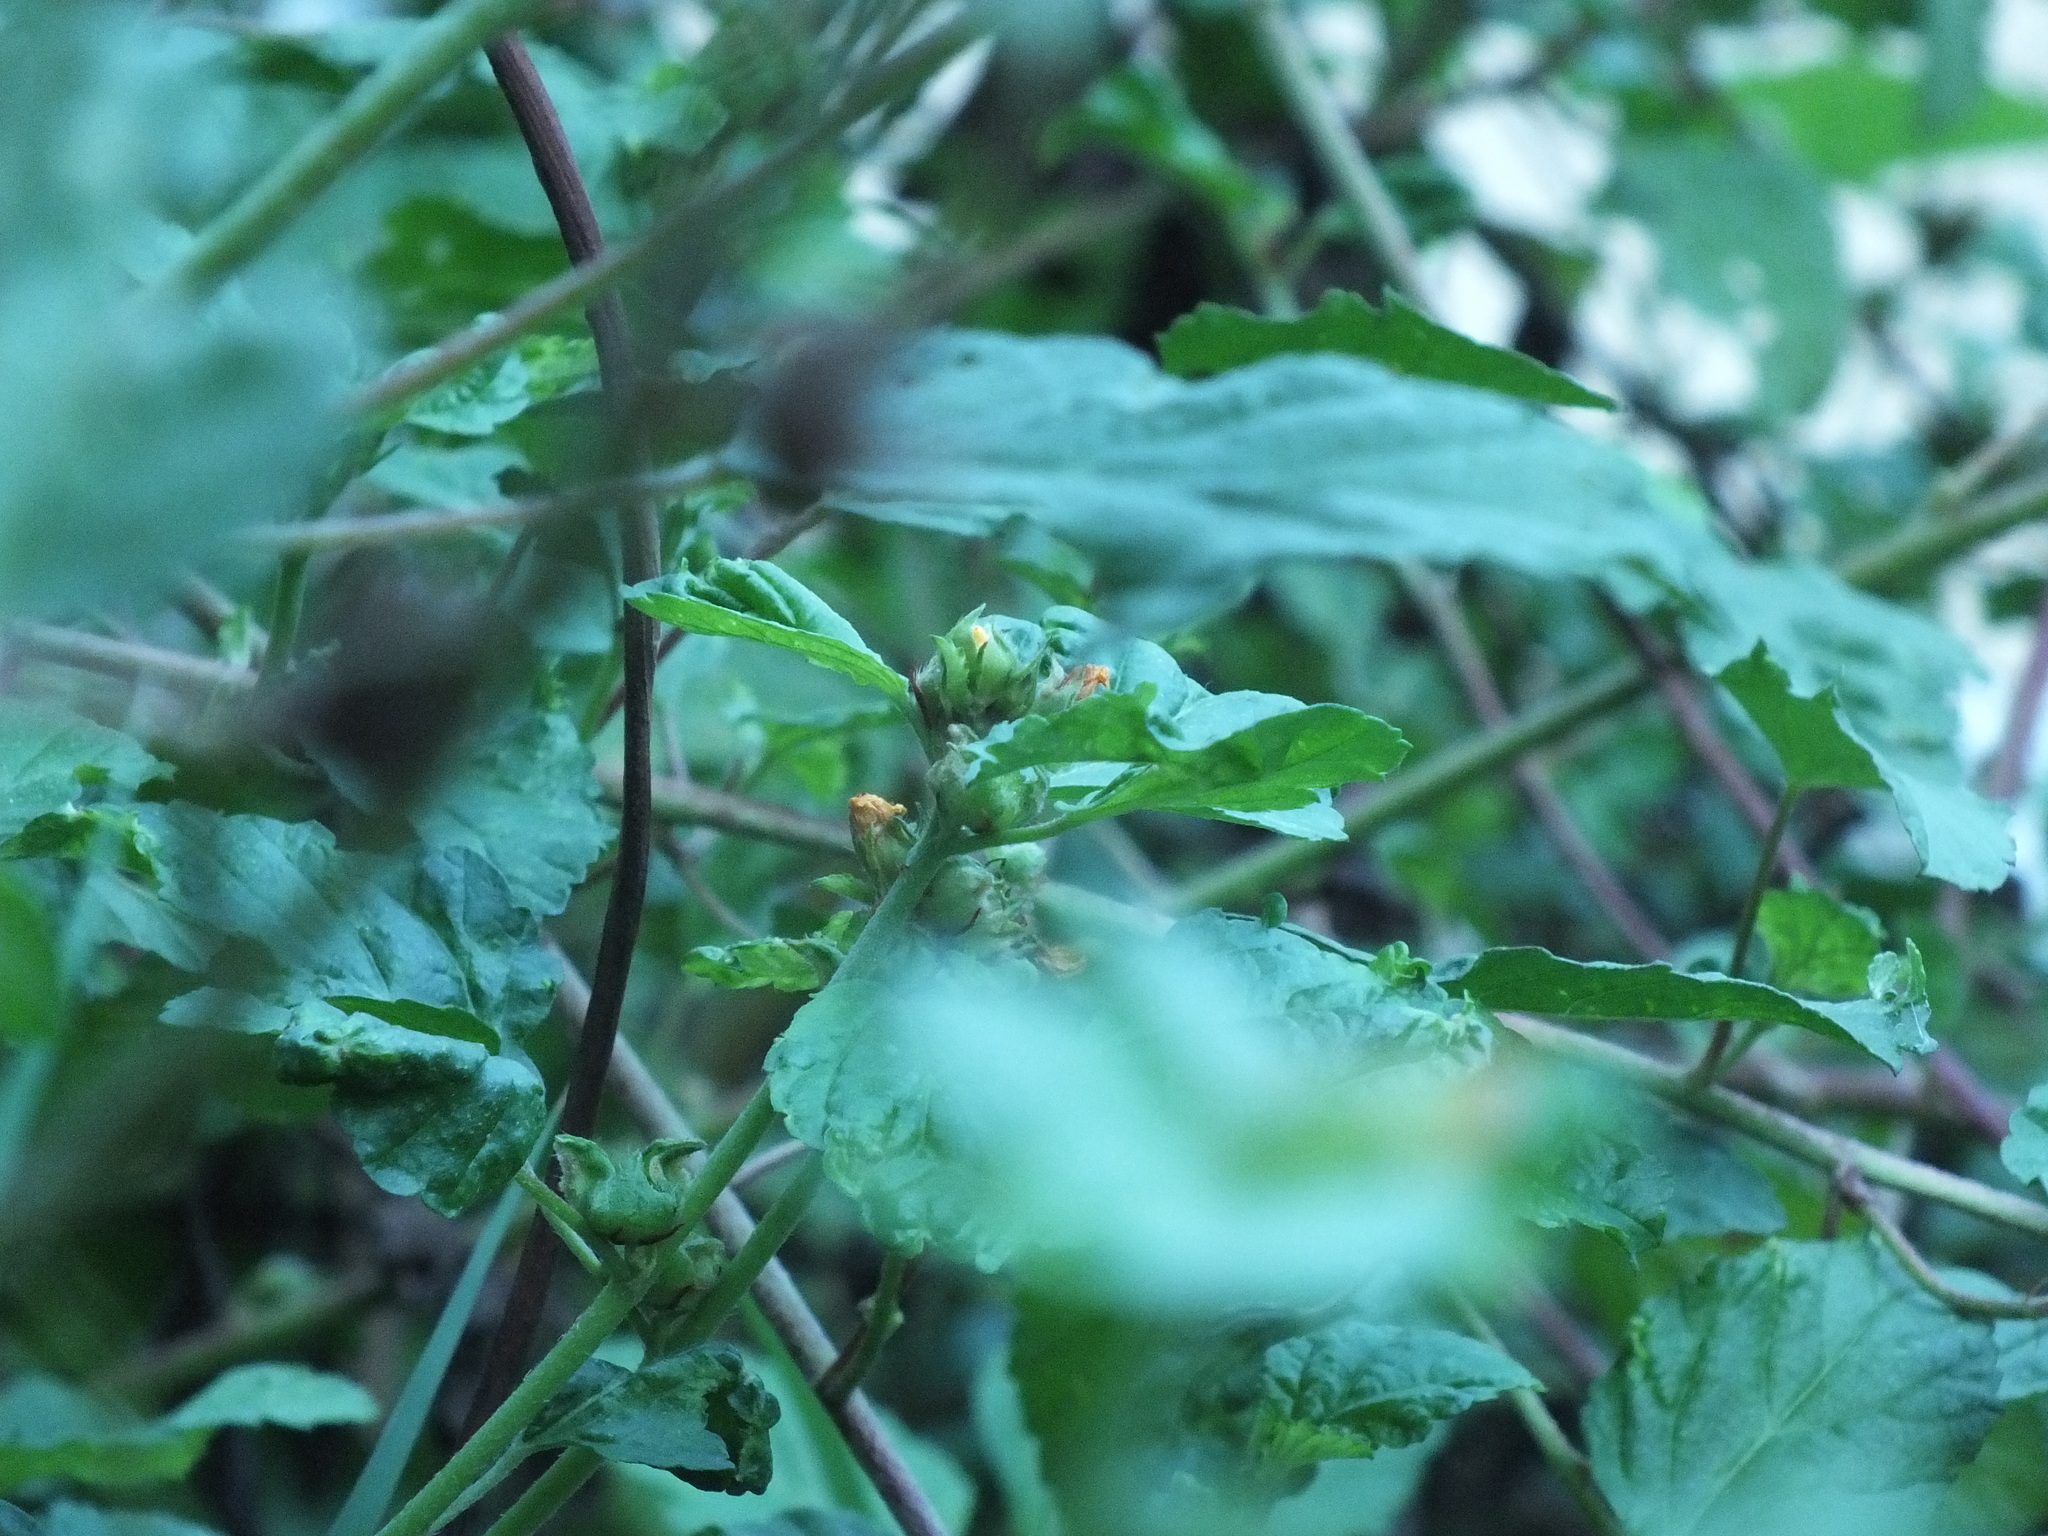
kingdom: Plantae
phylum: Tracheophyta
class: Magnoliopsida
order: Malvales
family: Malvaceae
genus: Malvastrum
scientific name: Malvastrum coromandelianum
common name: Threelobe false mallow
